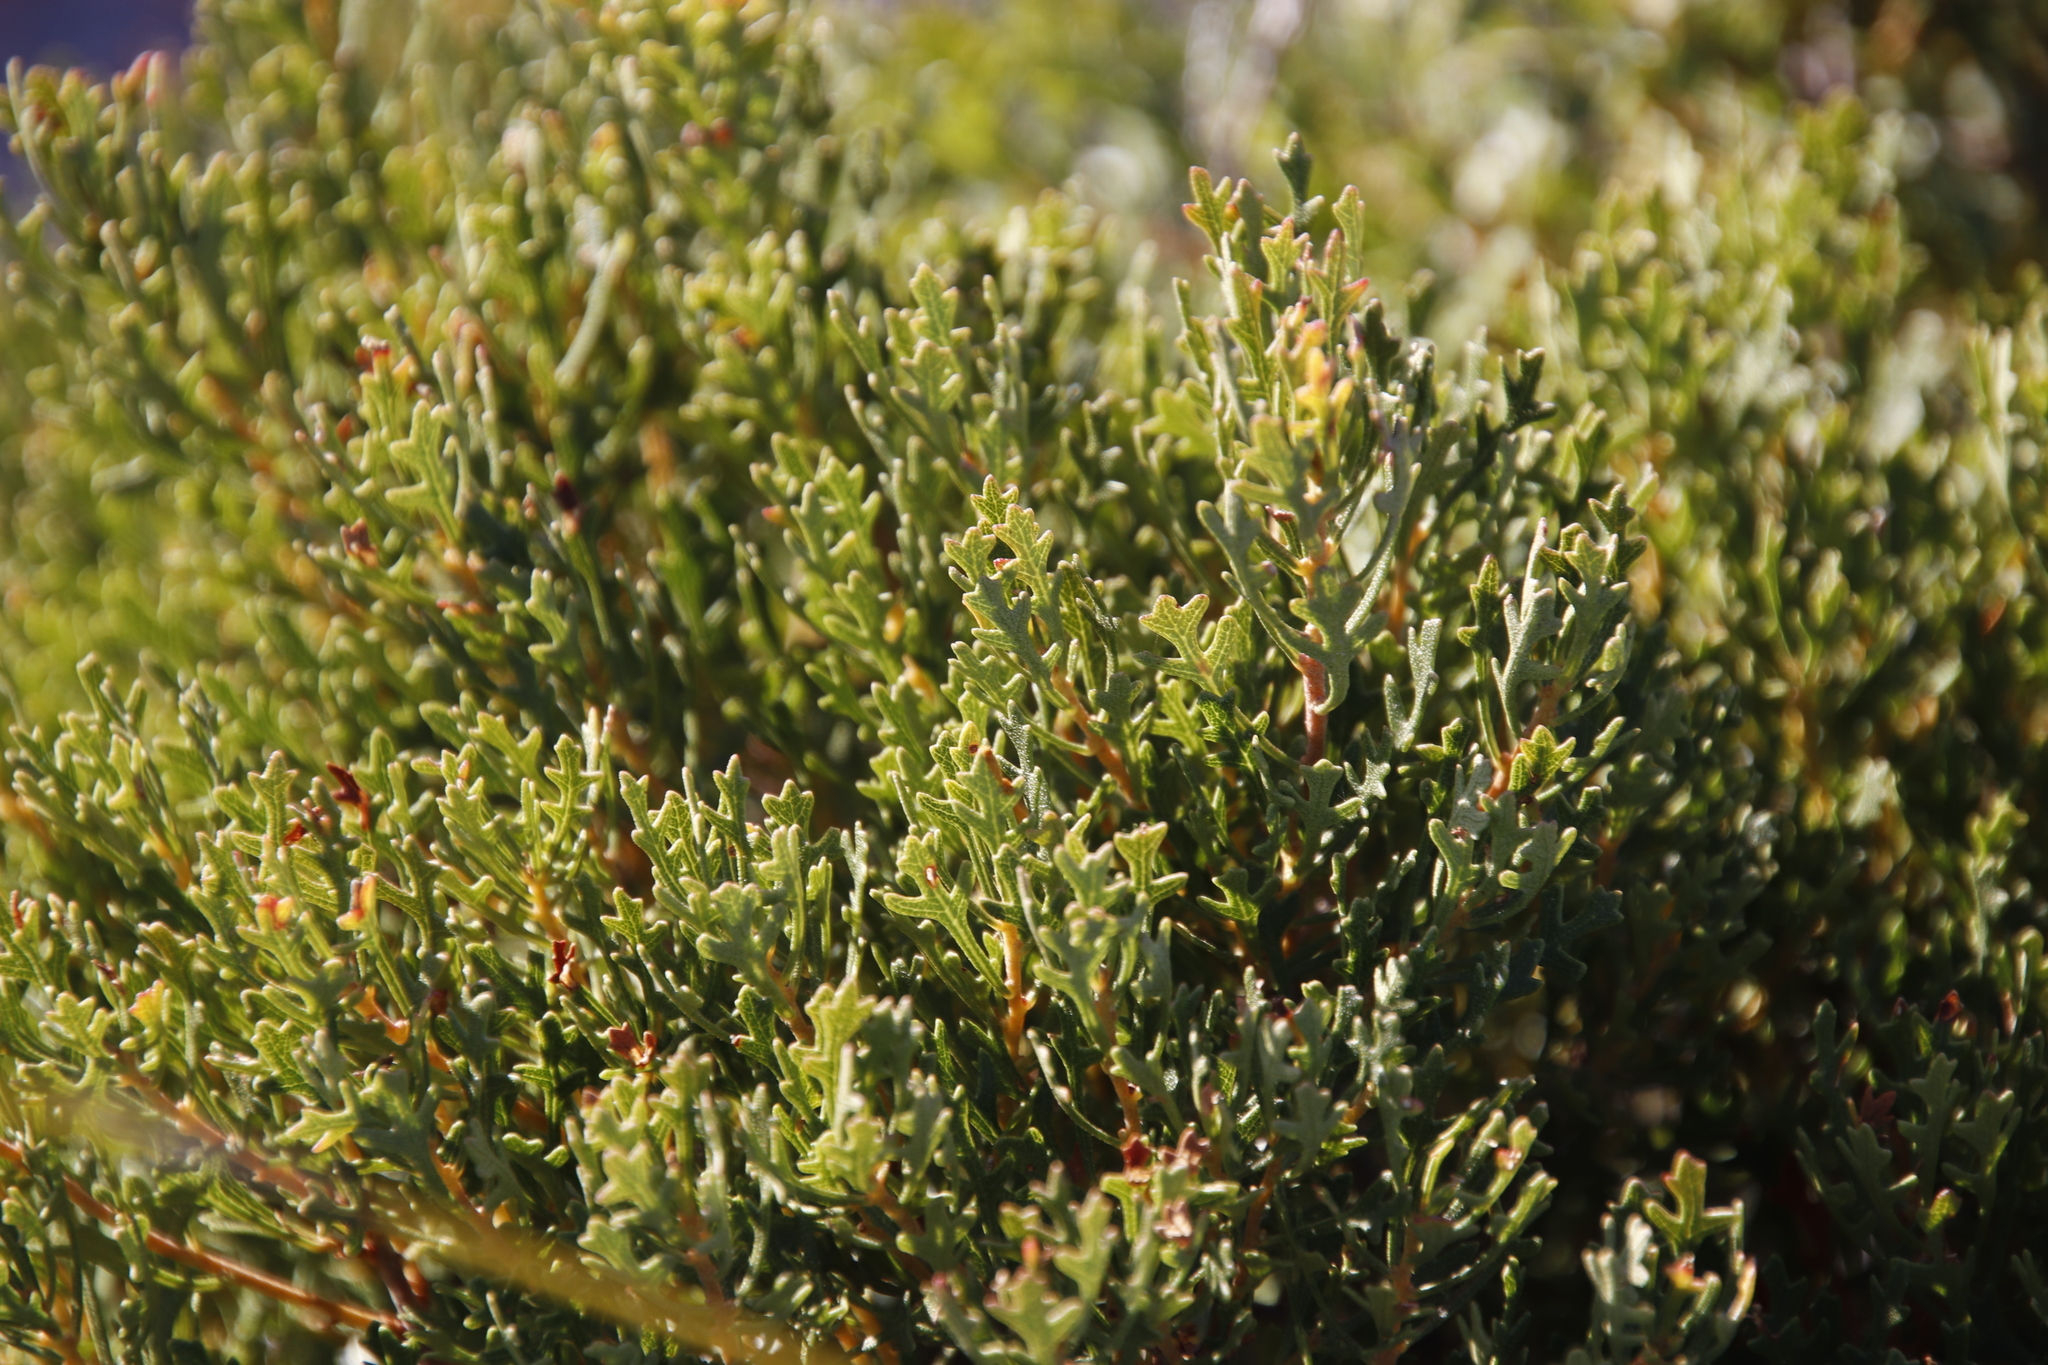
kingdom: Plantae
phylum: Tracheophyta
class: Magnoliopsida
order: Fagales
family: Myricaceae
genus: Morella
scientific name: Morella quercifolia
